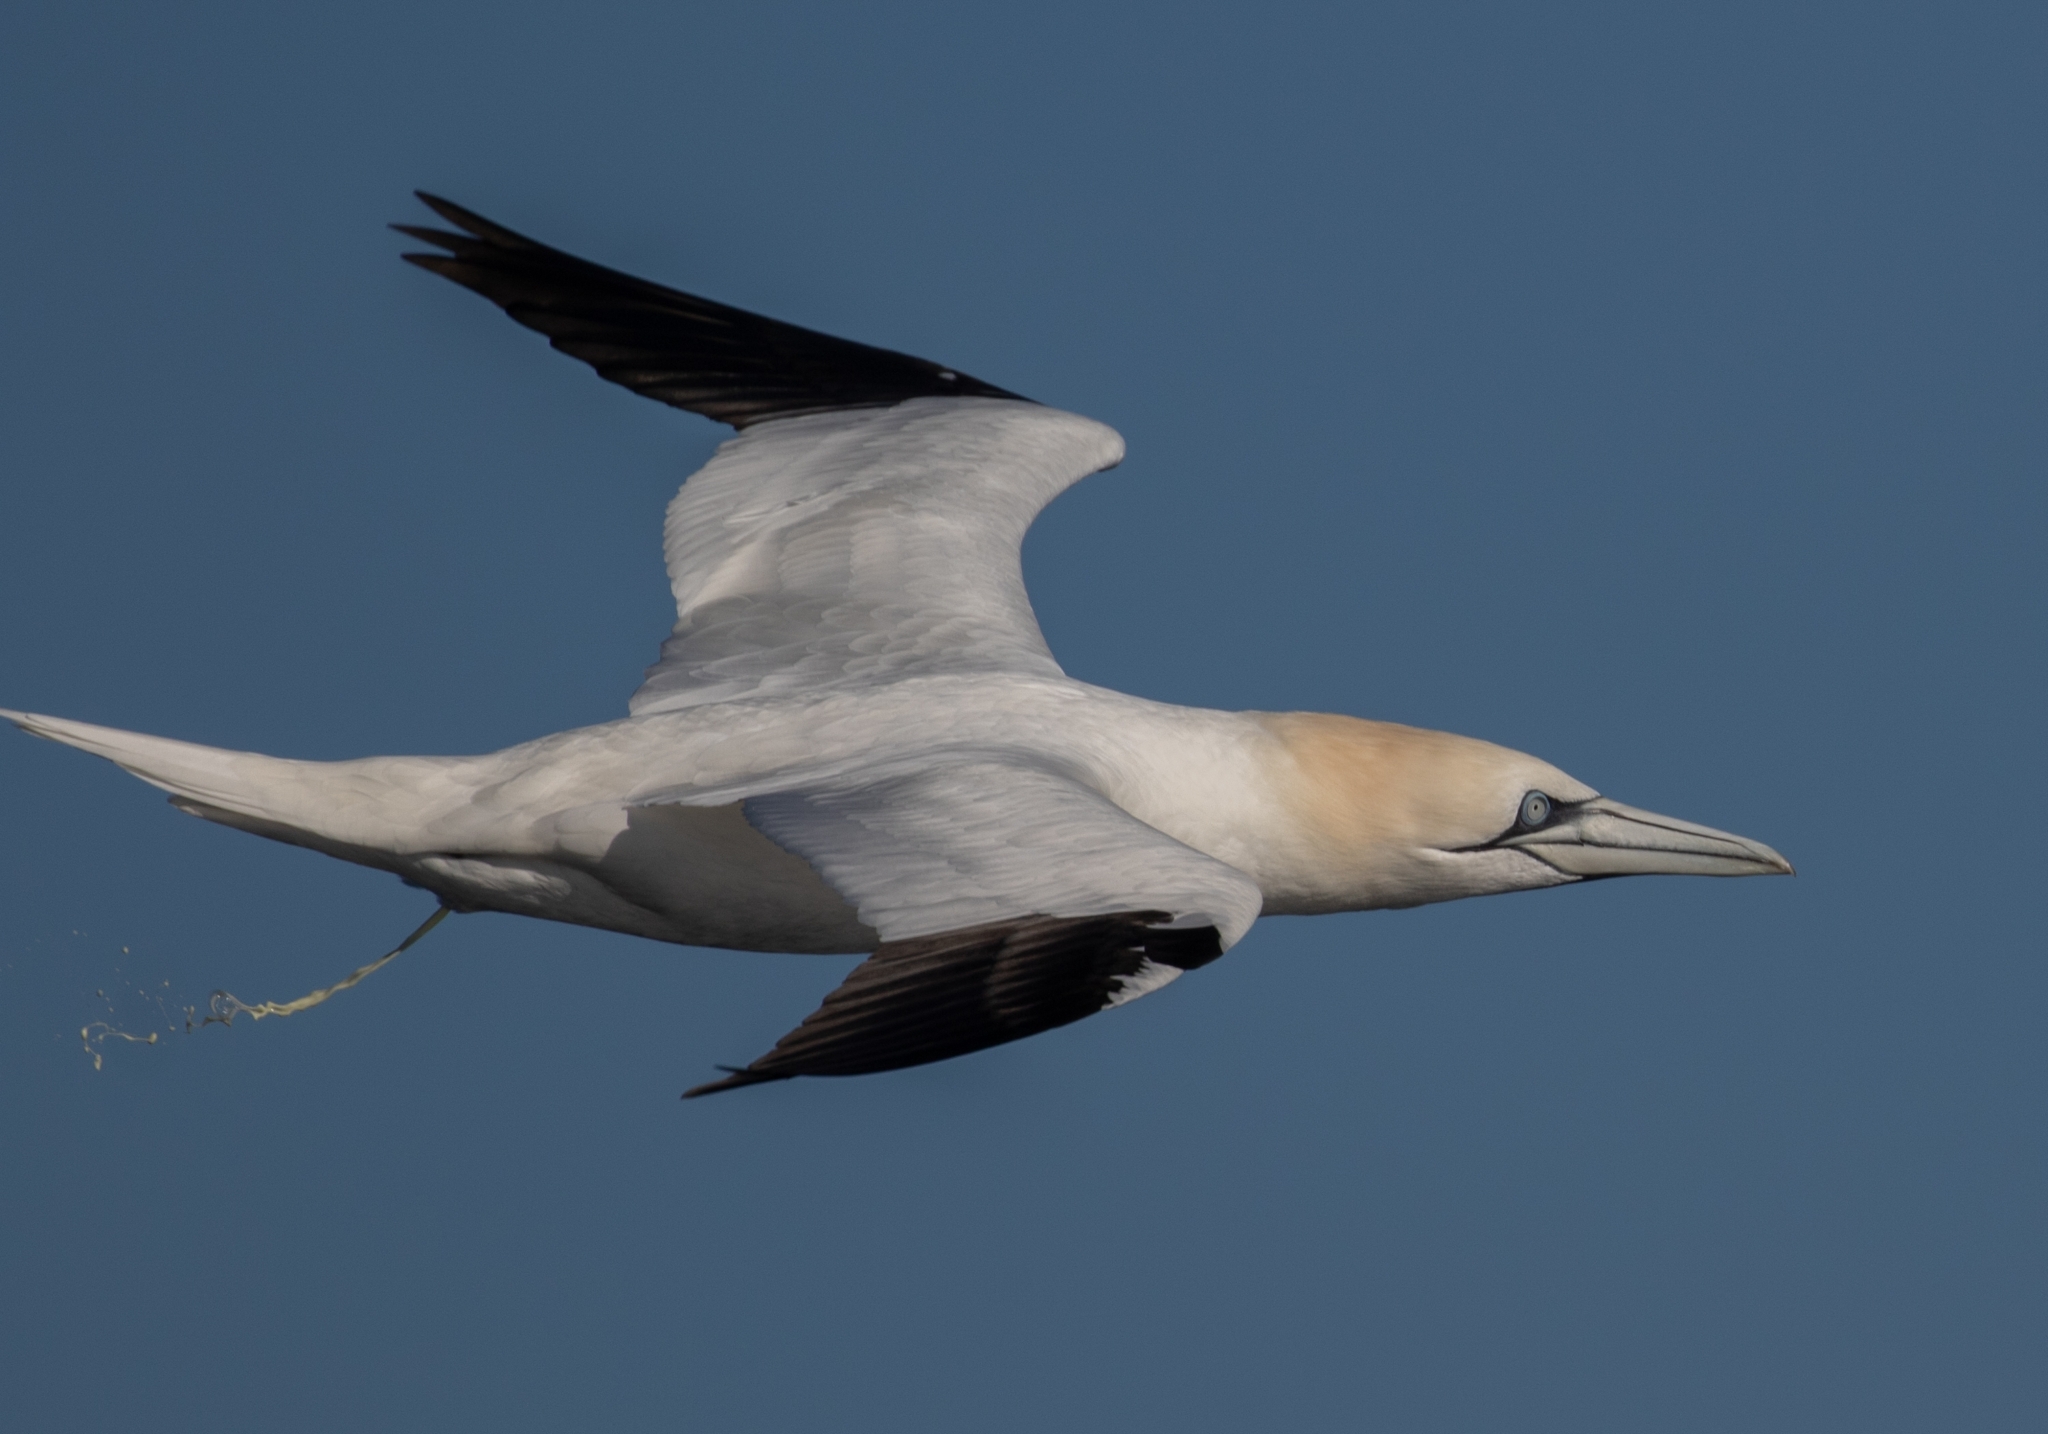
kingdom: Animalia
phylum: Chordata
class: Aves
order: Suliformes
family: Sulidae
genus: Morus
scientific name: Morus bassanus
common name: Northern gannet
